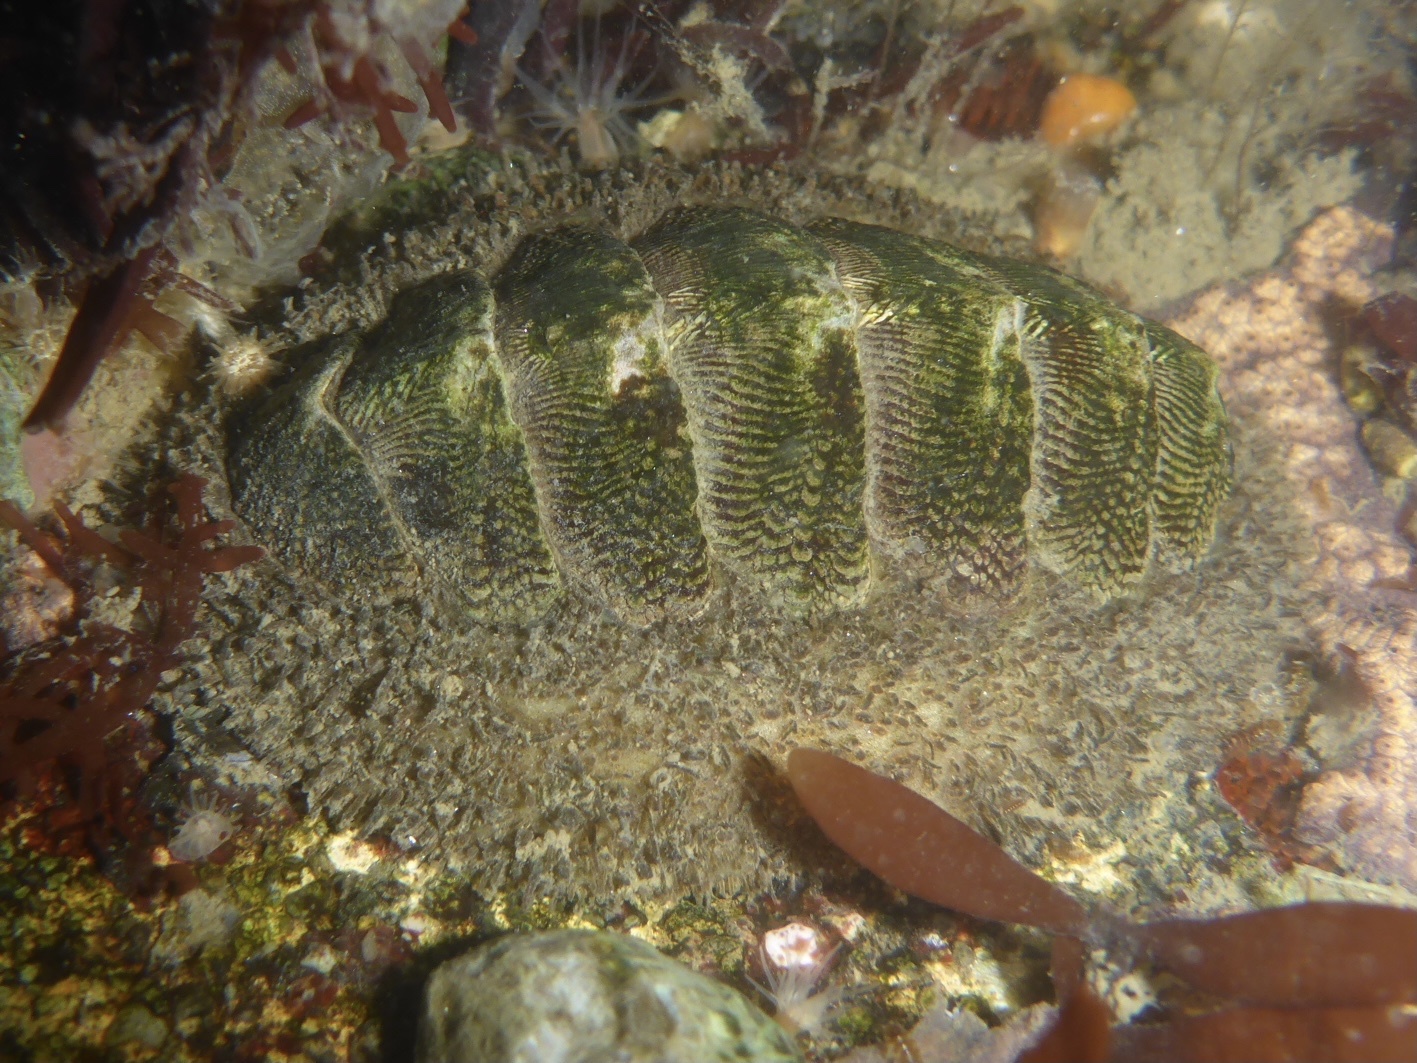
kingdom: Animalia
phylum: Mollusca
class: Polyplacophora
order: Chitonida
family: Mopaliidae
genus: Mopalia
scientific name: Mopalia muscosa
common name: Mossy chiton
